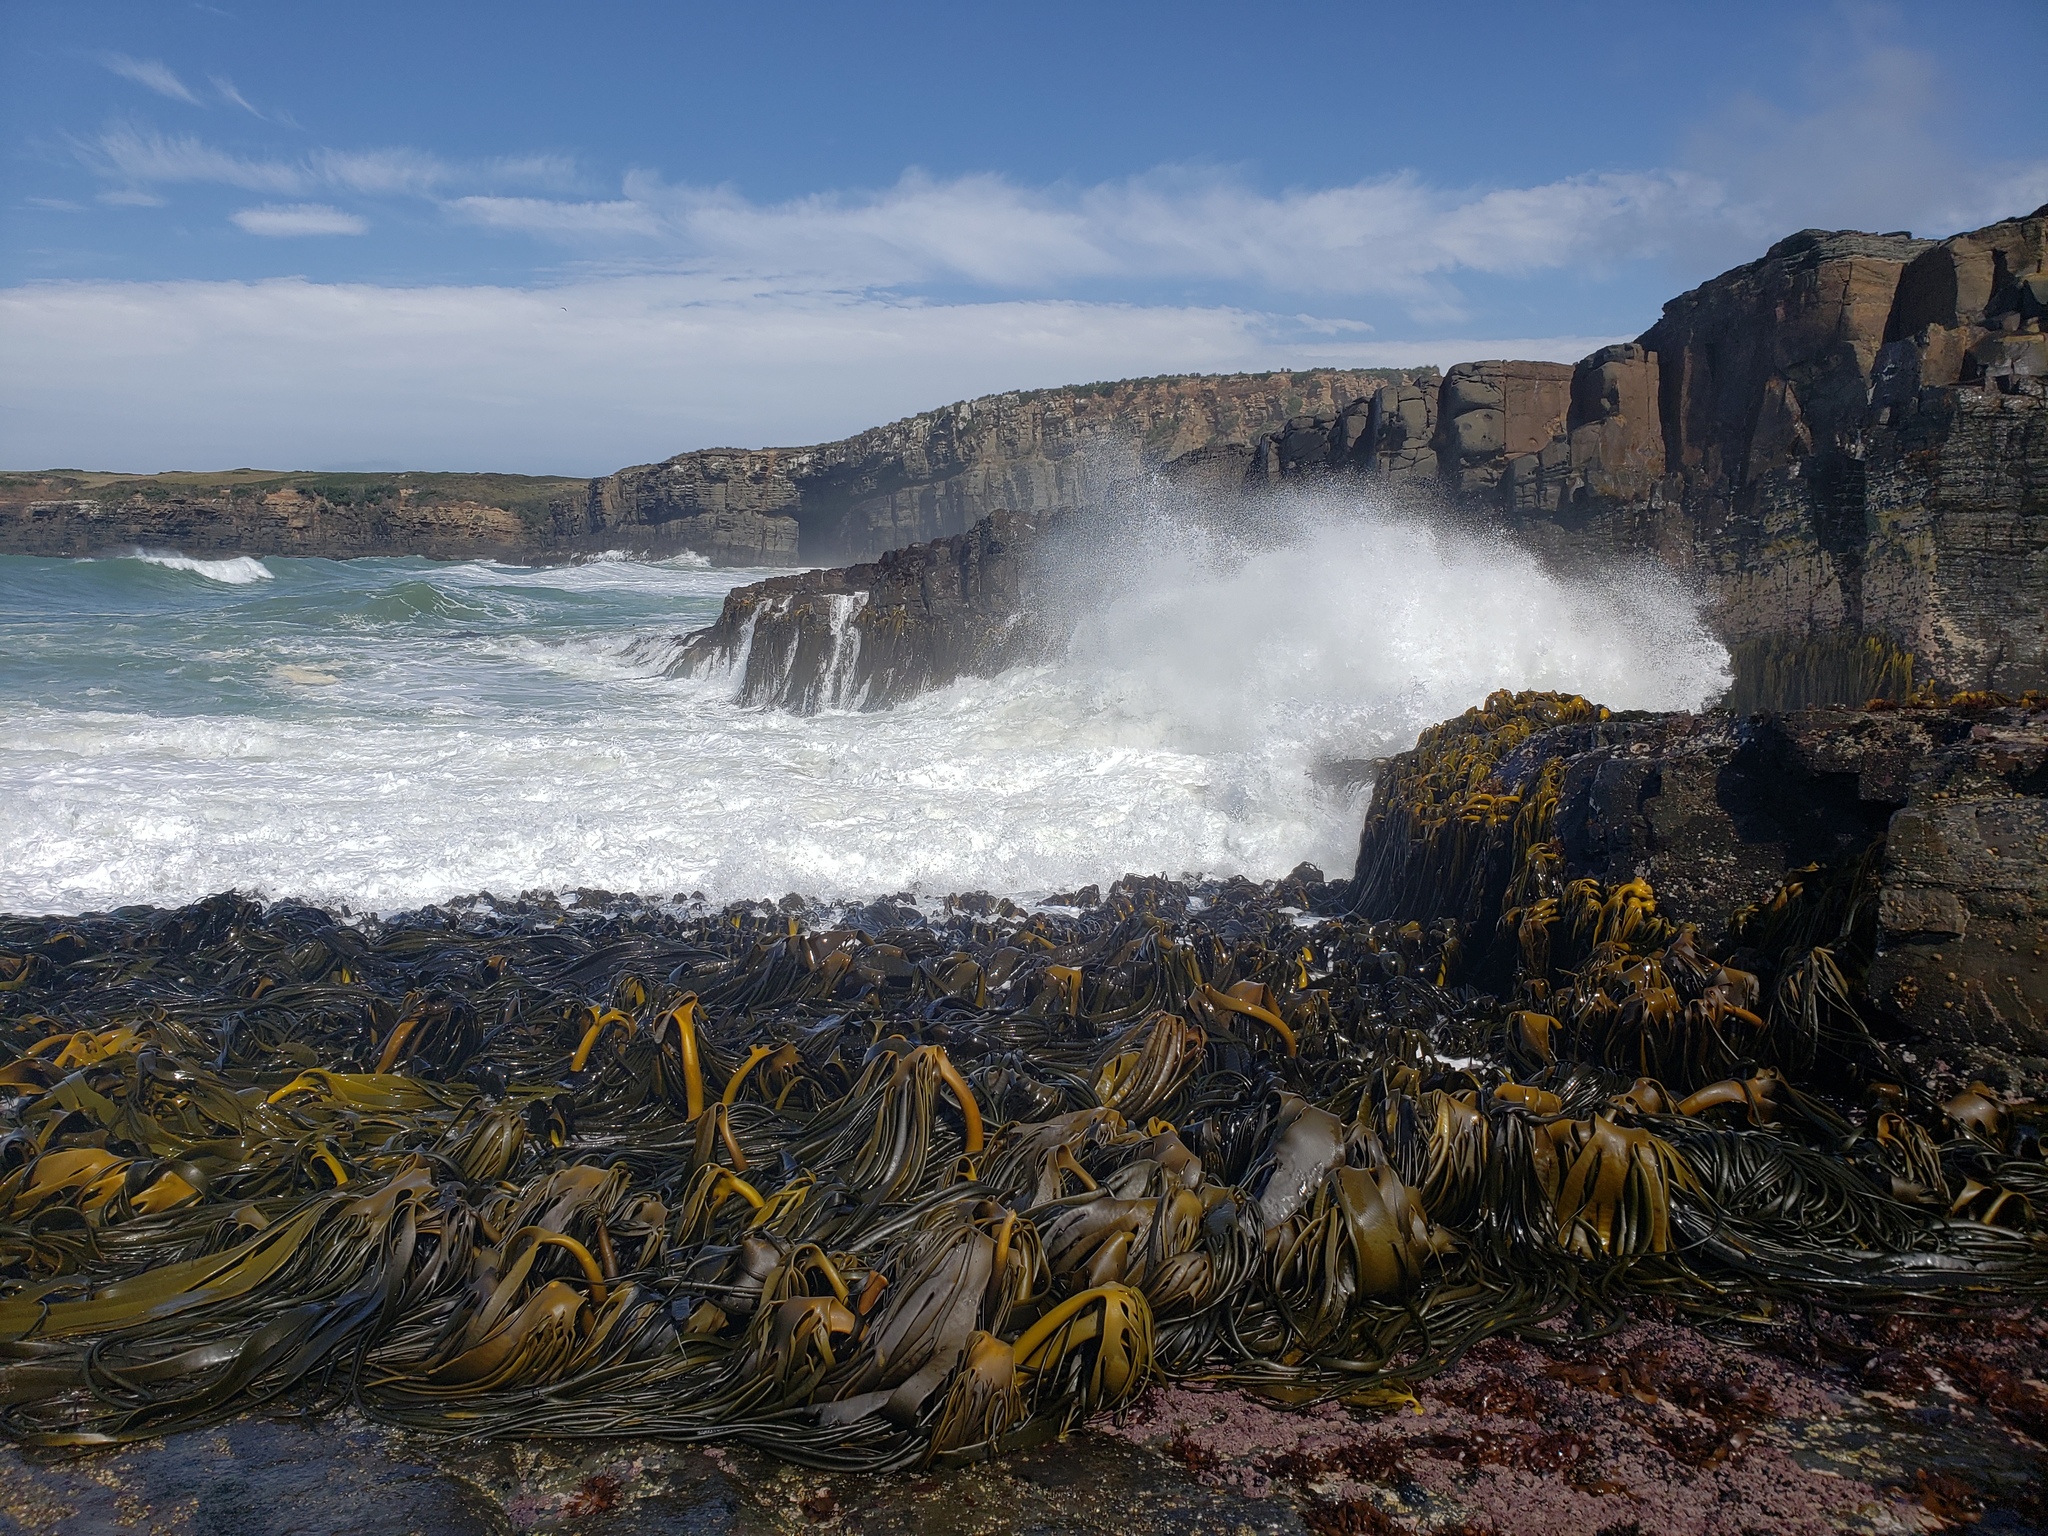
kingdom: Chromista
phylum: Ochrophyta
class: Phaeophyceae
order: Fucales
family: Durvillaeaceae
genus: Durvillaea
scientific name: Durvillaea poha
